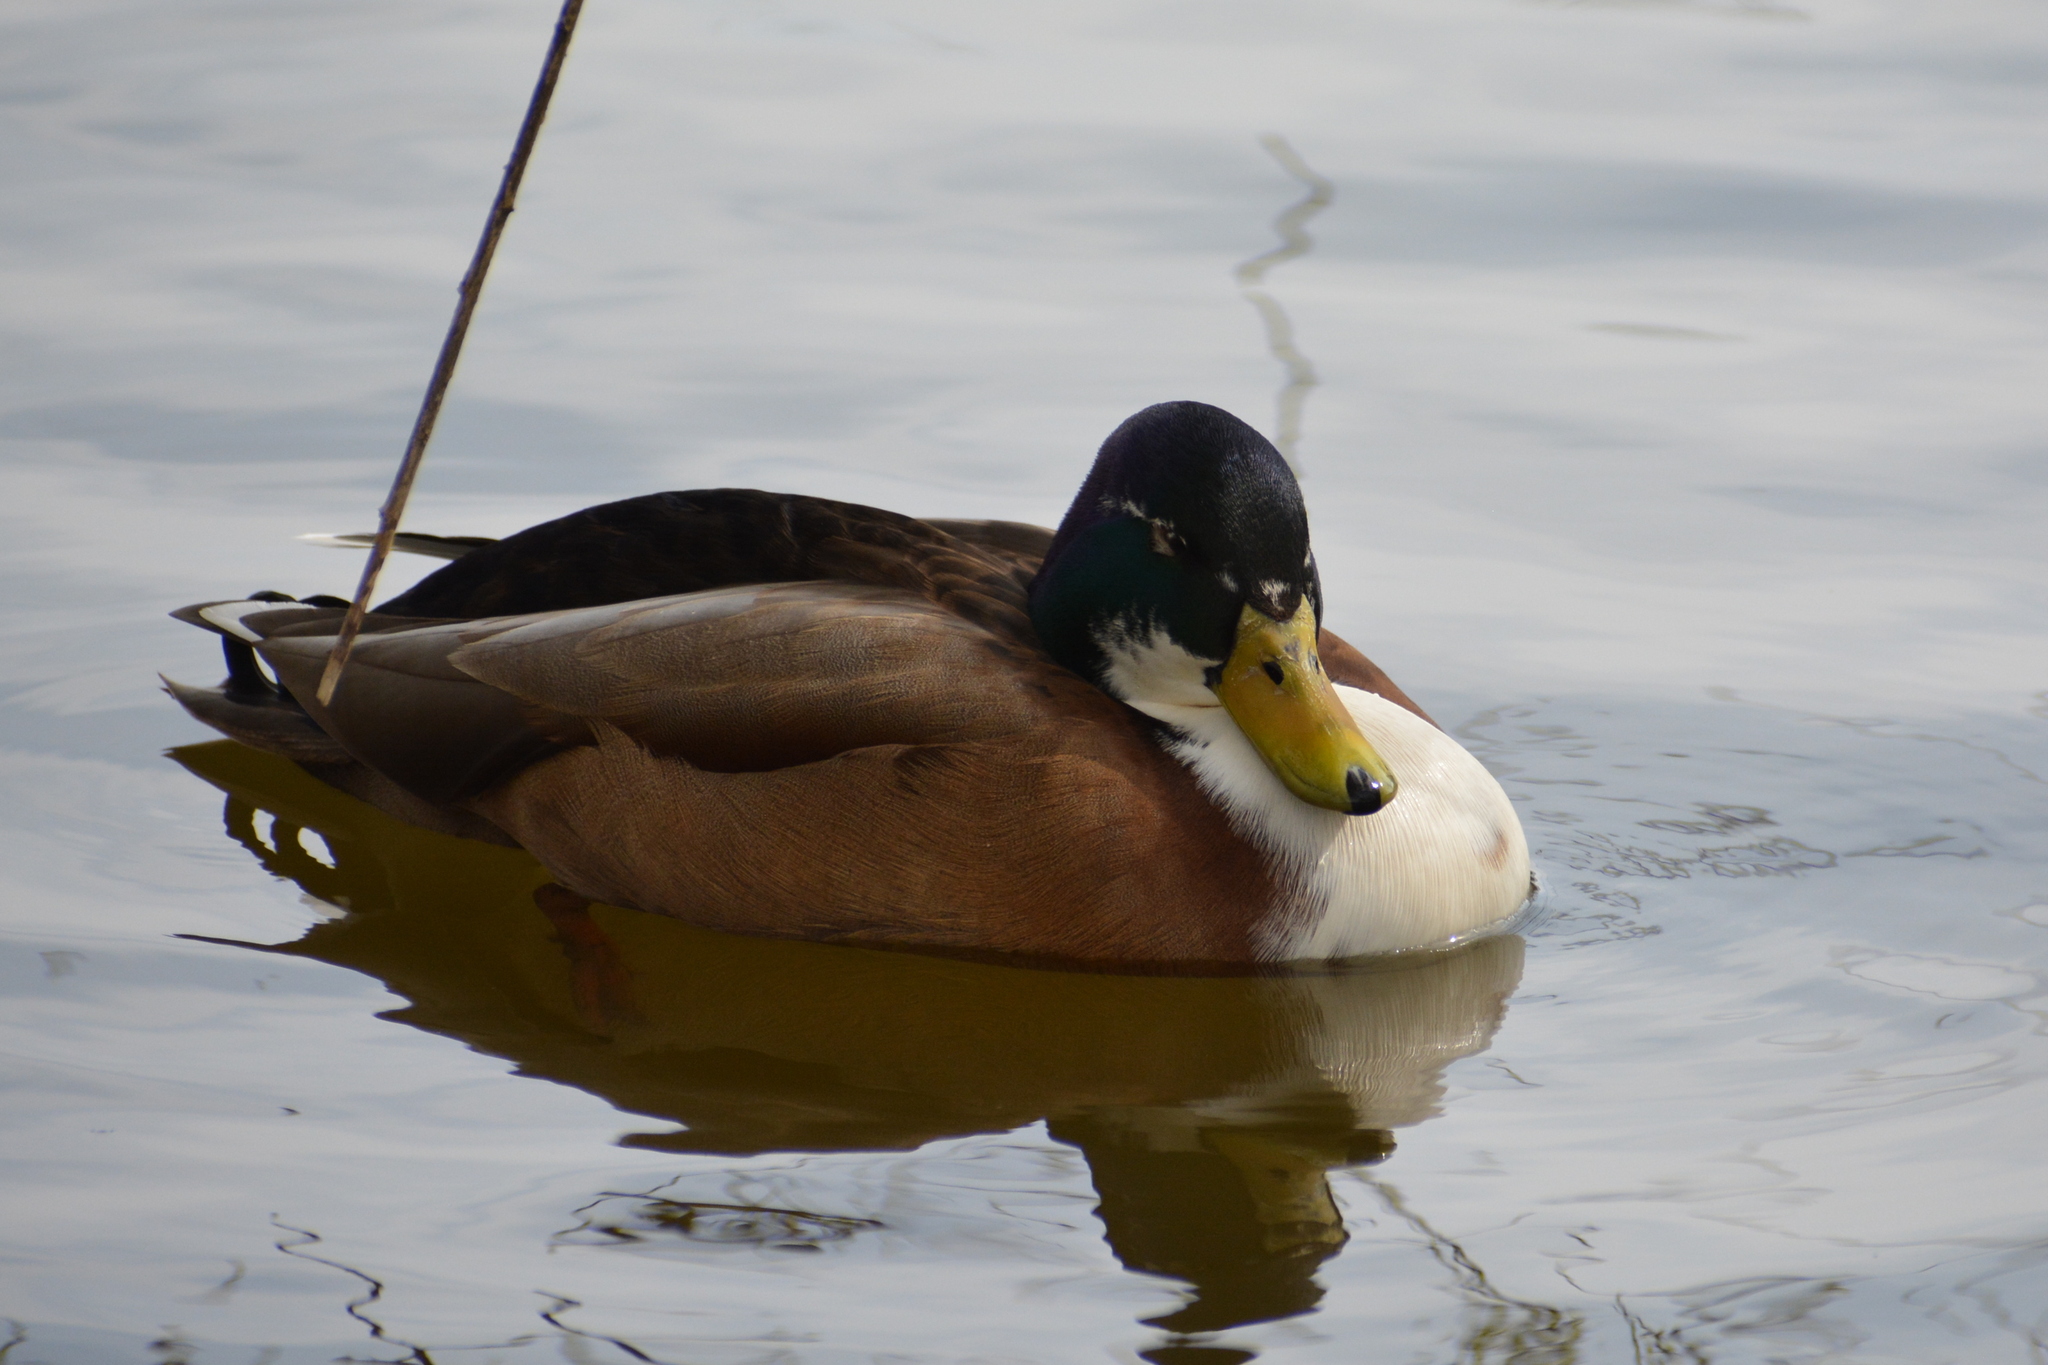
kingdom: Animalia
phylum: Chordata
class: Aves
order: Anseriformes
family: Anatidae
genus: Anas
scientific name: Anas platyrhynchos
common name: Mallard
